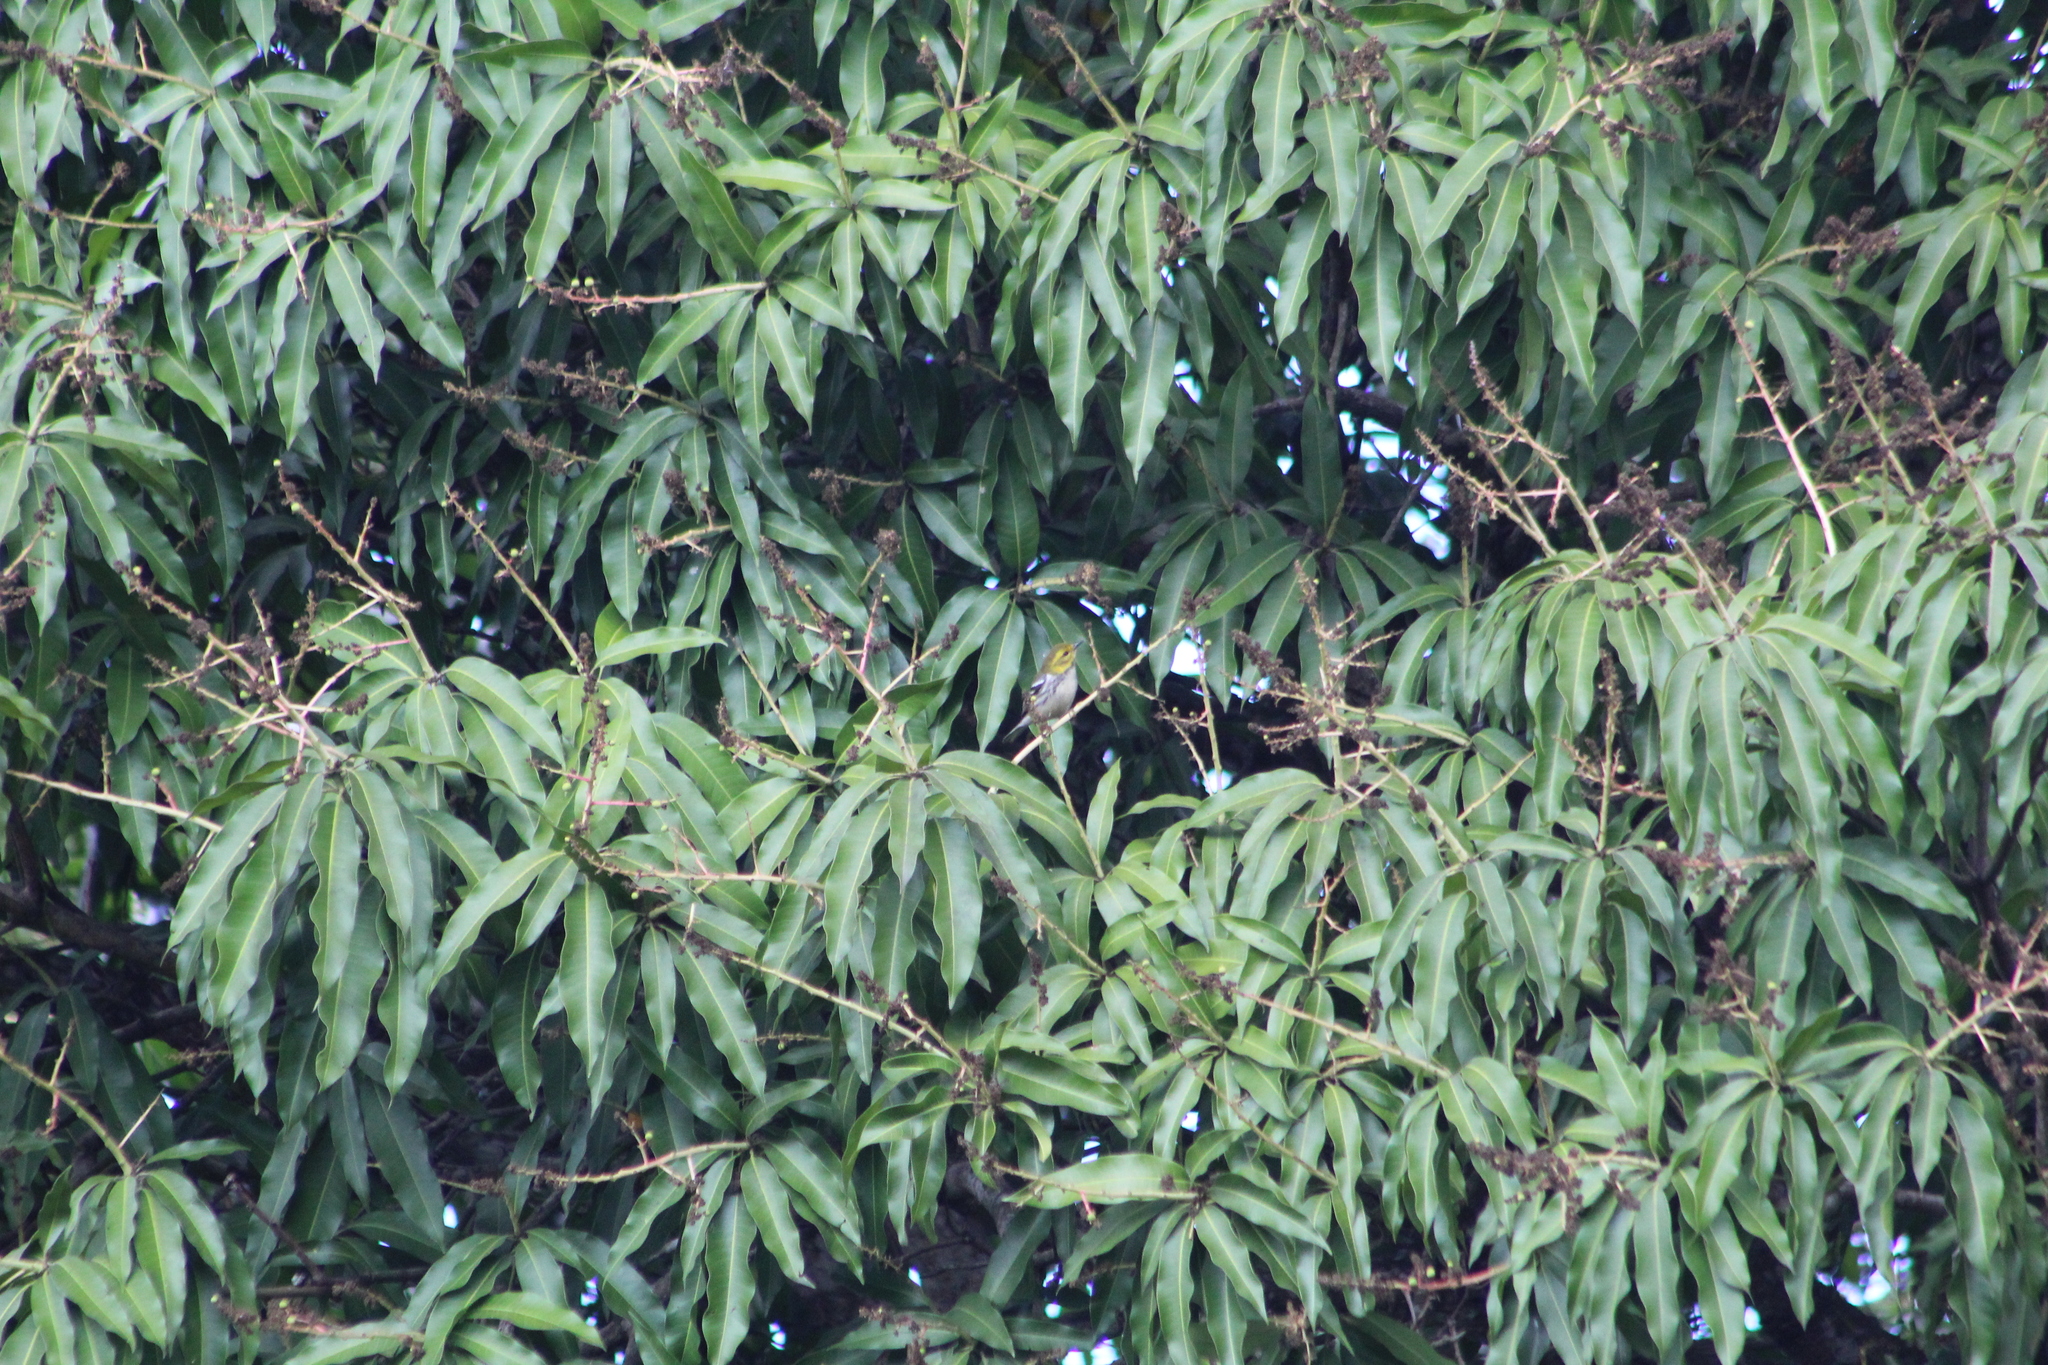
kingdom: Animalia
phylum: Chordata
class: Aves
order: Passeriformes
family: Parulidae
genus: Setophaga
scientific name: Setophaga virens
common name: Black-throated green warbler
